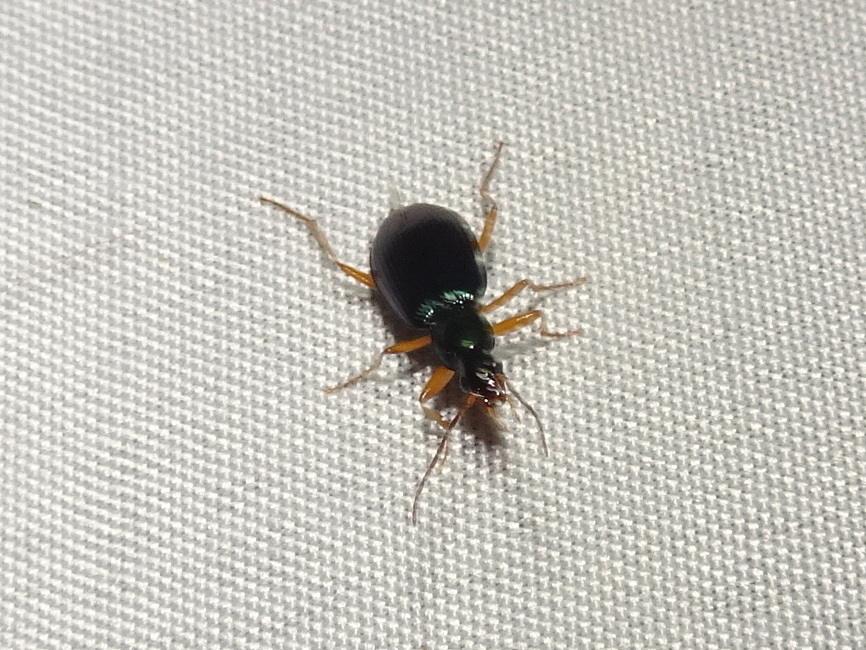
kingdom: Animalia
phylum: Arthropoda
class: Insecta
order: Coleoptera
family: Carabidae
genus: Agonum
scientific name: Agonum extensicolle
